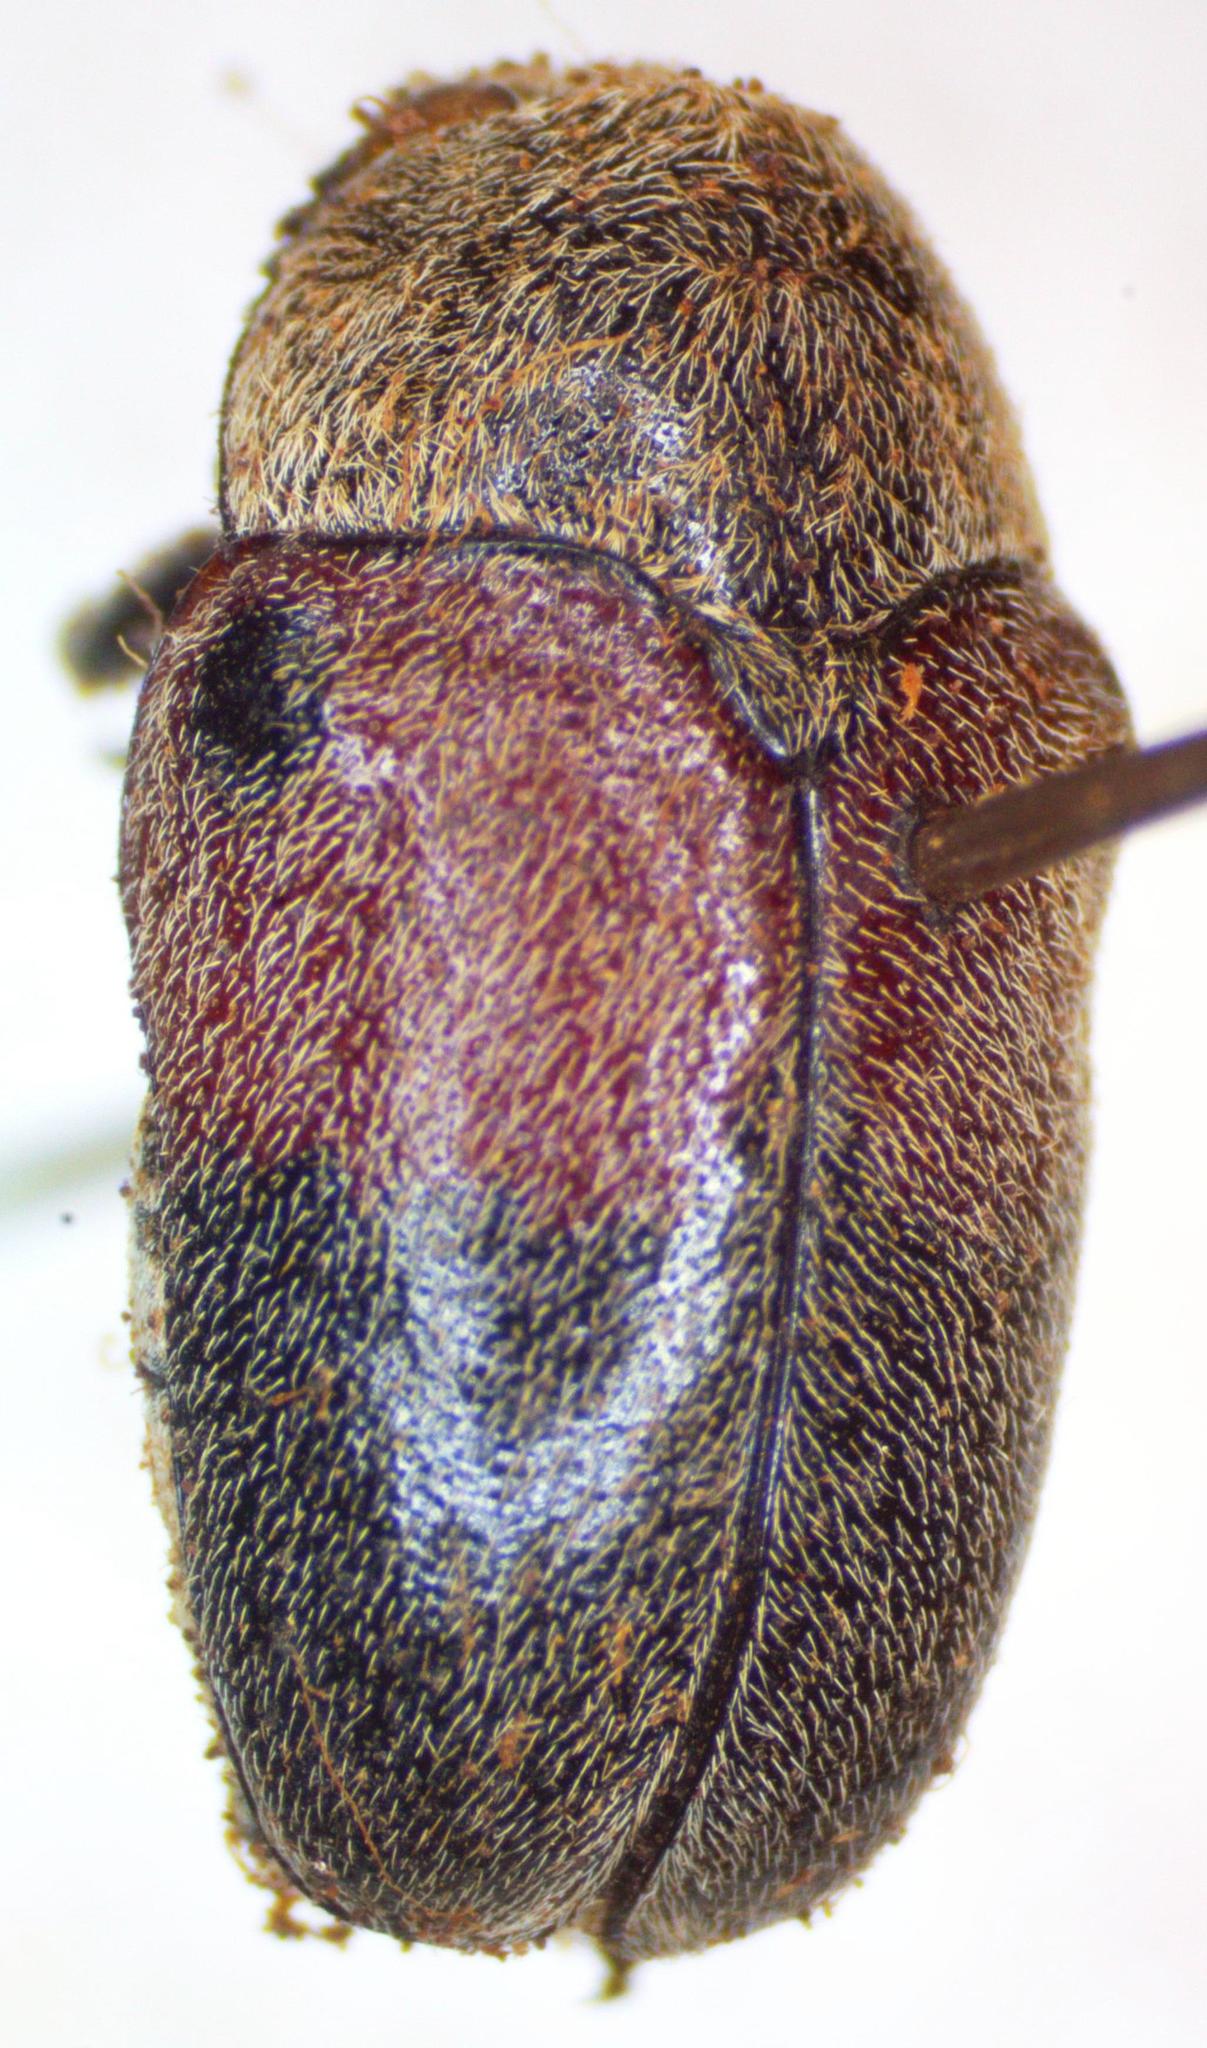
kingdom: Animalia
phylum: Arthropoda
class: Insecta
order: Coleoptera
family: Chrysomelidae
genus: Megalostomis
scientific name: Megalostomis dimidiata
